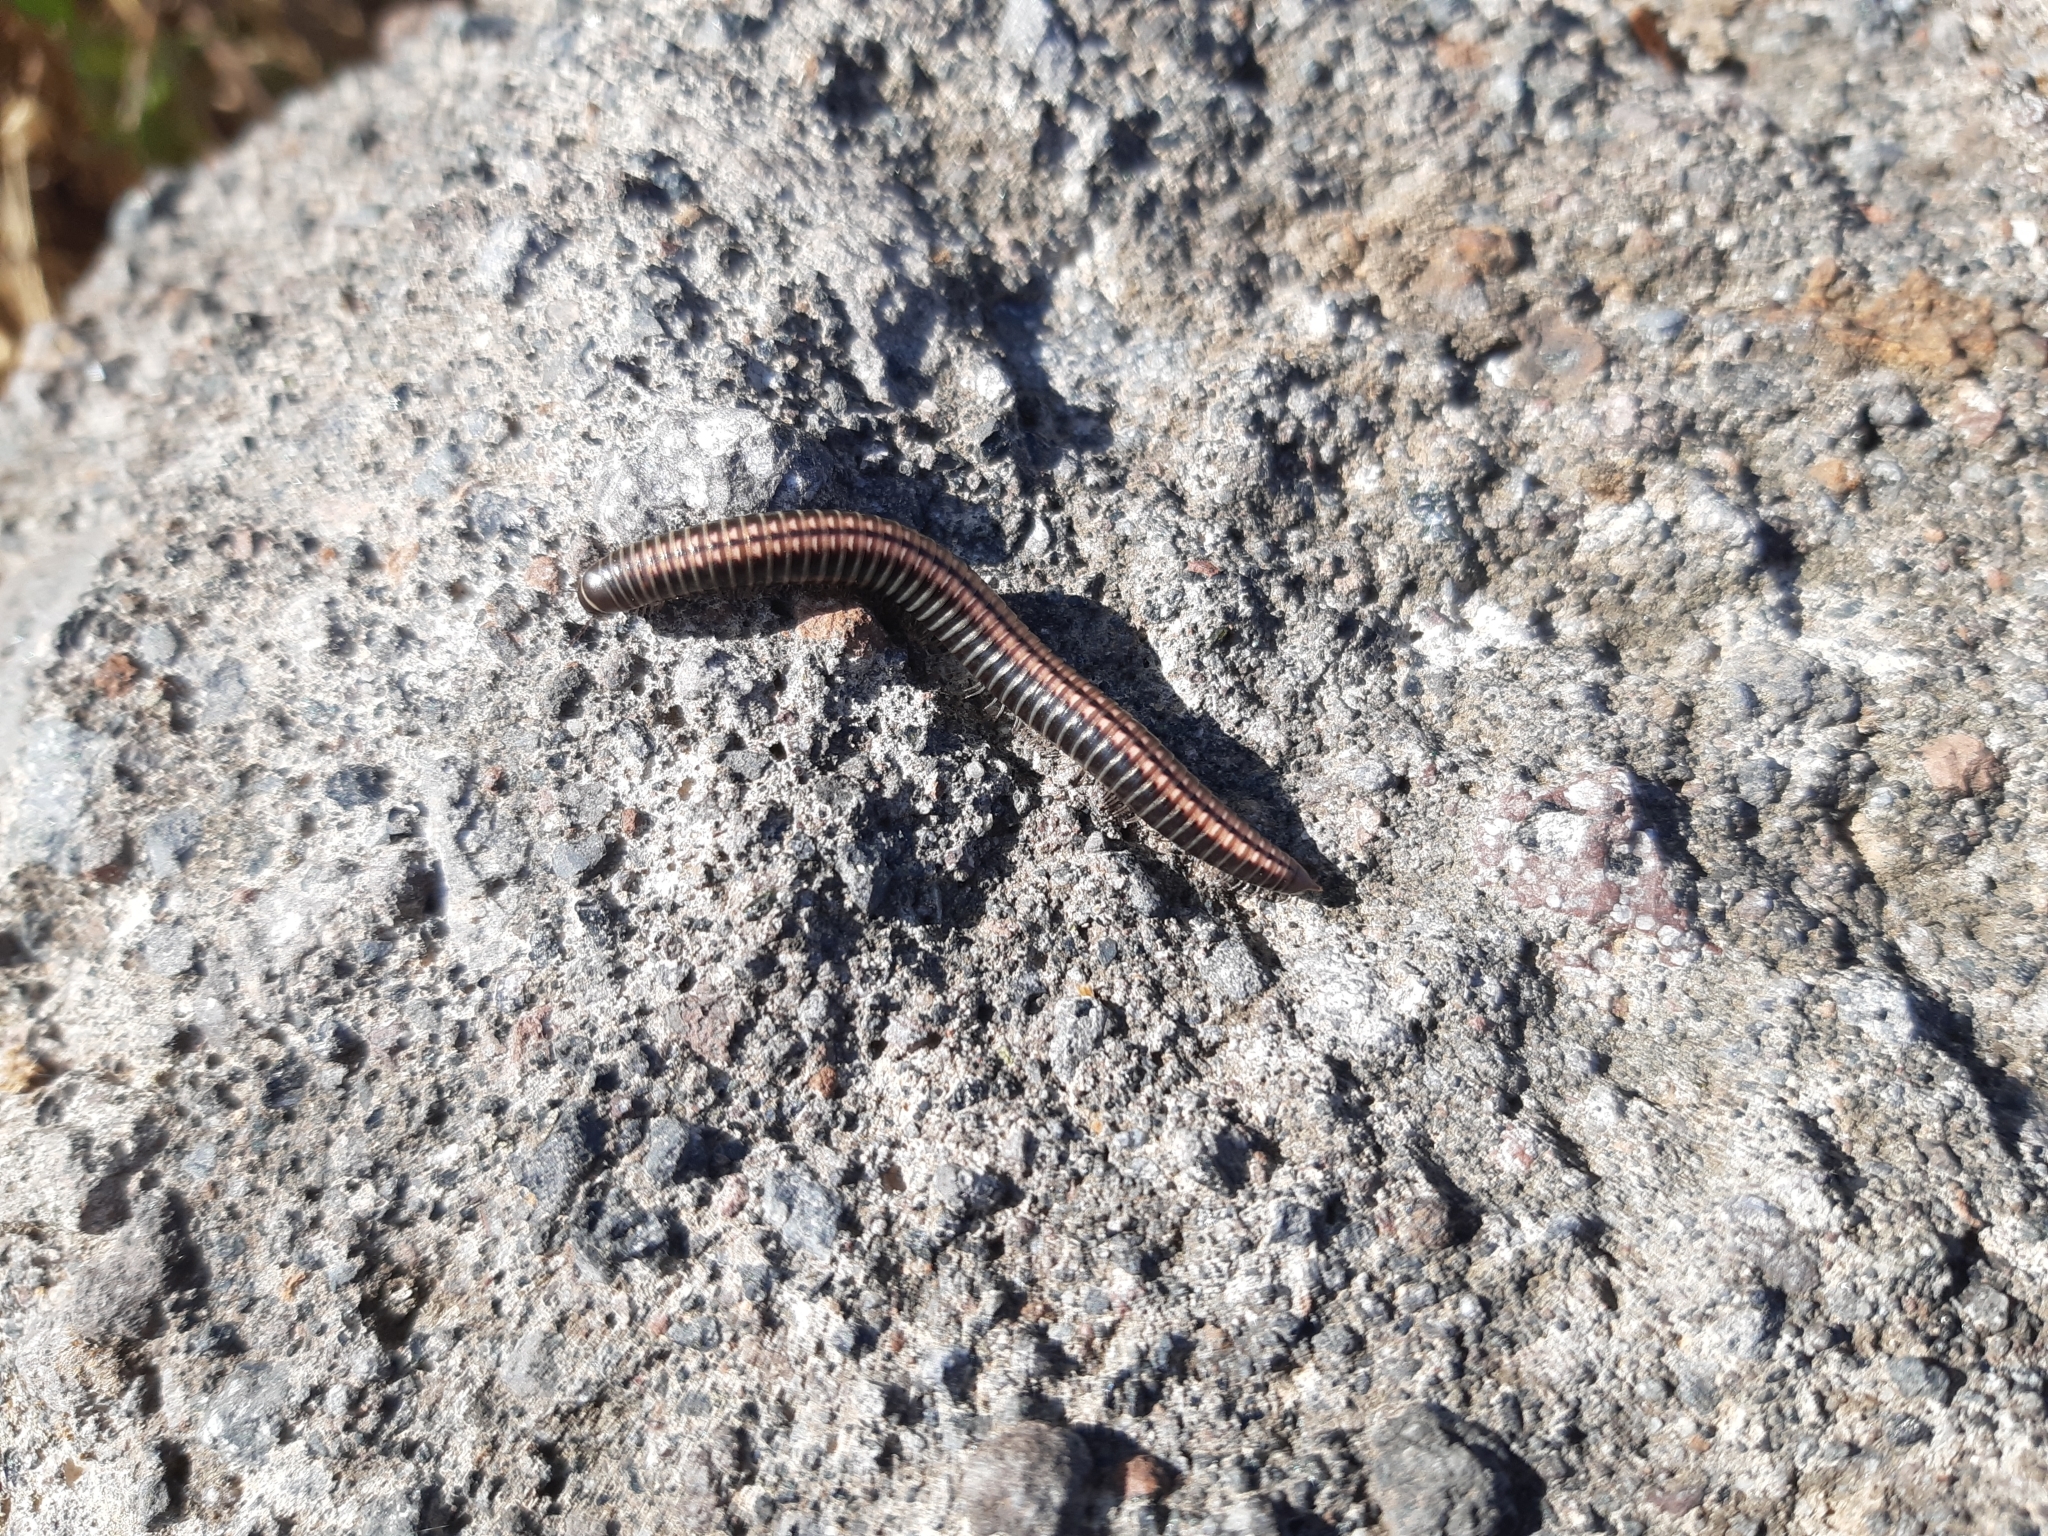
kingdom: Animalia
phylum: Arthropoda
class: Diplopoda
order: Julida
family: Julidae
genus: Ommatoiulus
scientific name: Ommatoiulus sabulosus
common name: Striped millipede
